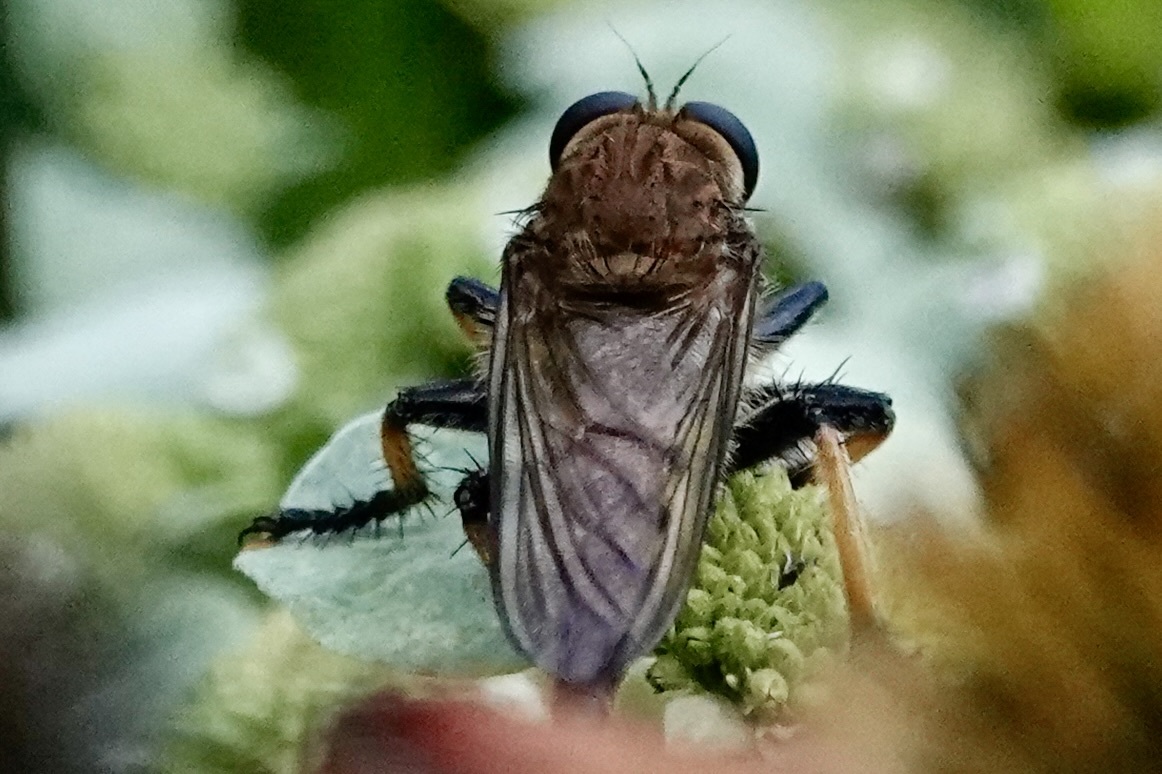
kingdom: Animalia
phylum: Arthropoda
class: Insecta
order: Diptera
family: Asilidae
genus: Promachus
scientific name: Promachus rufipes
